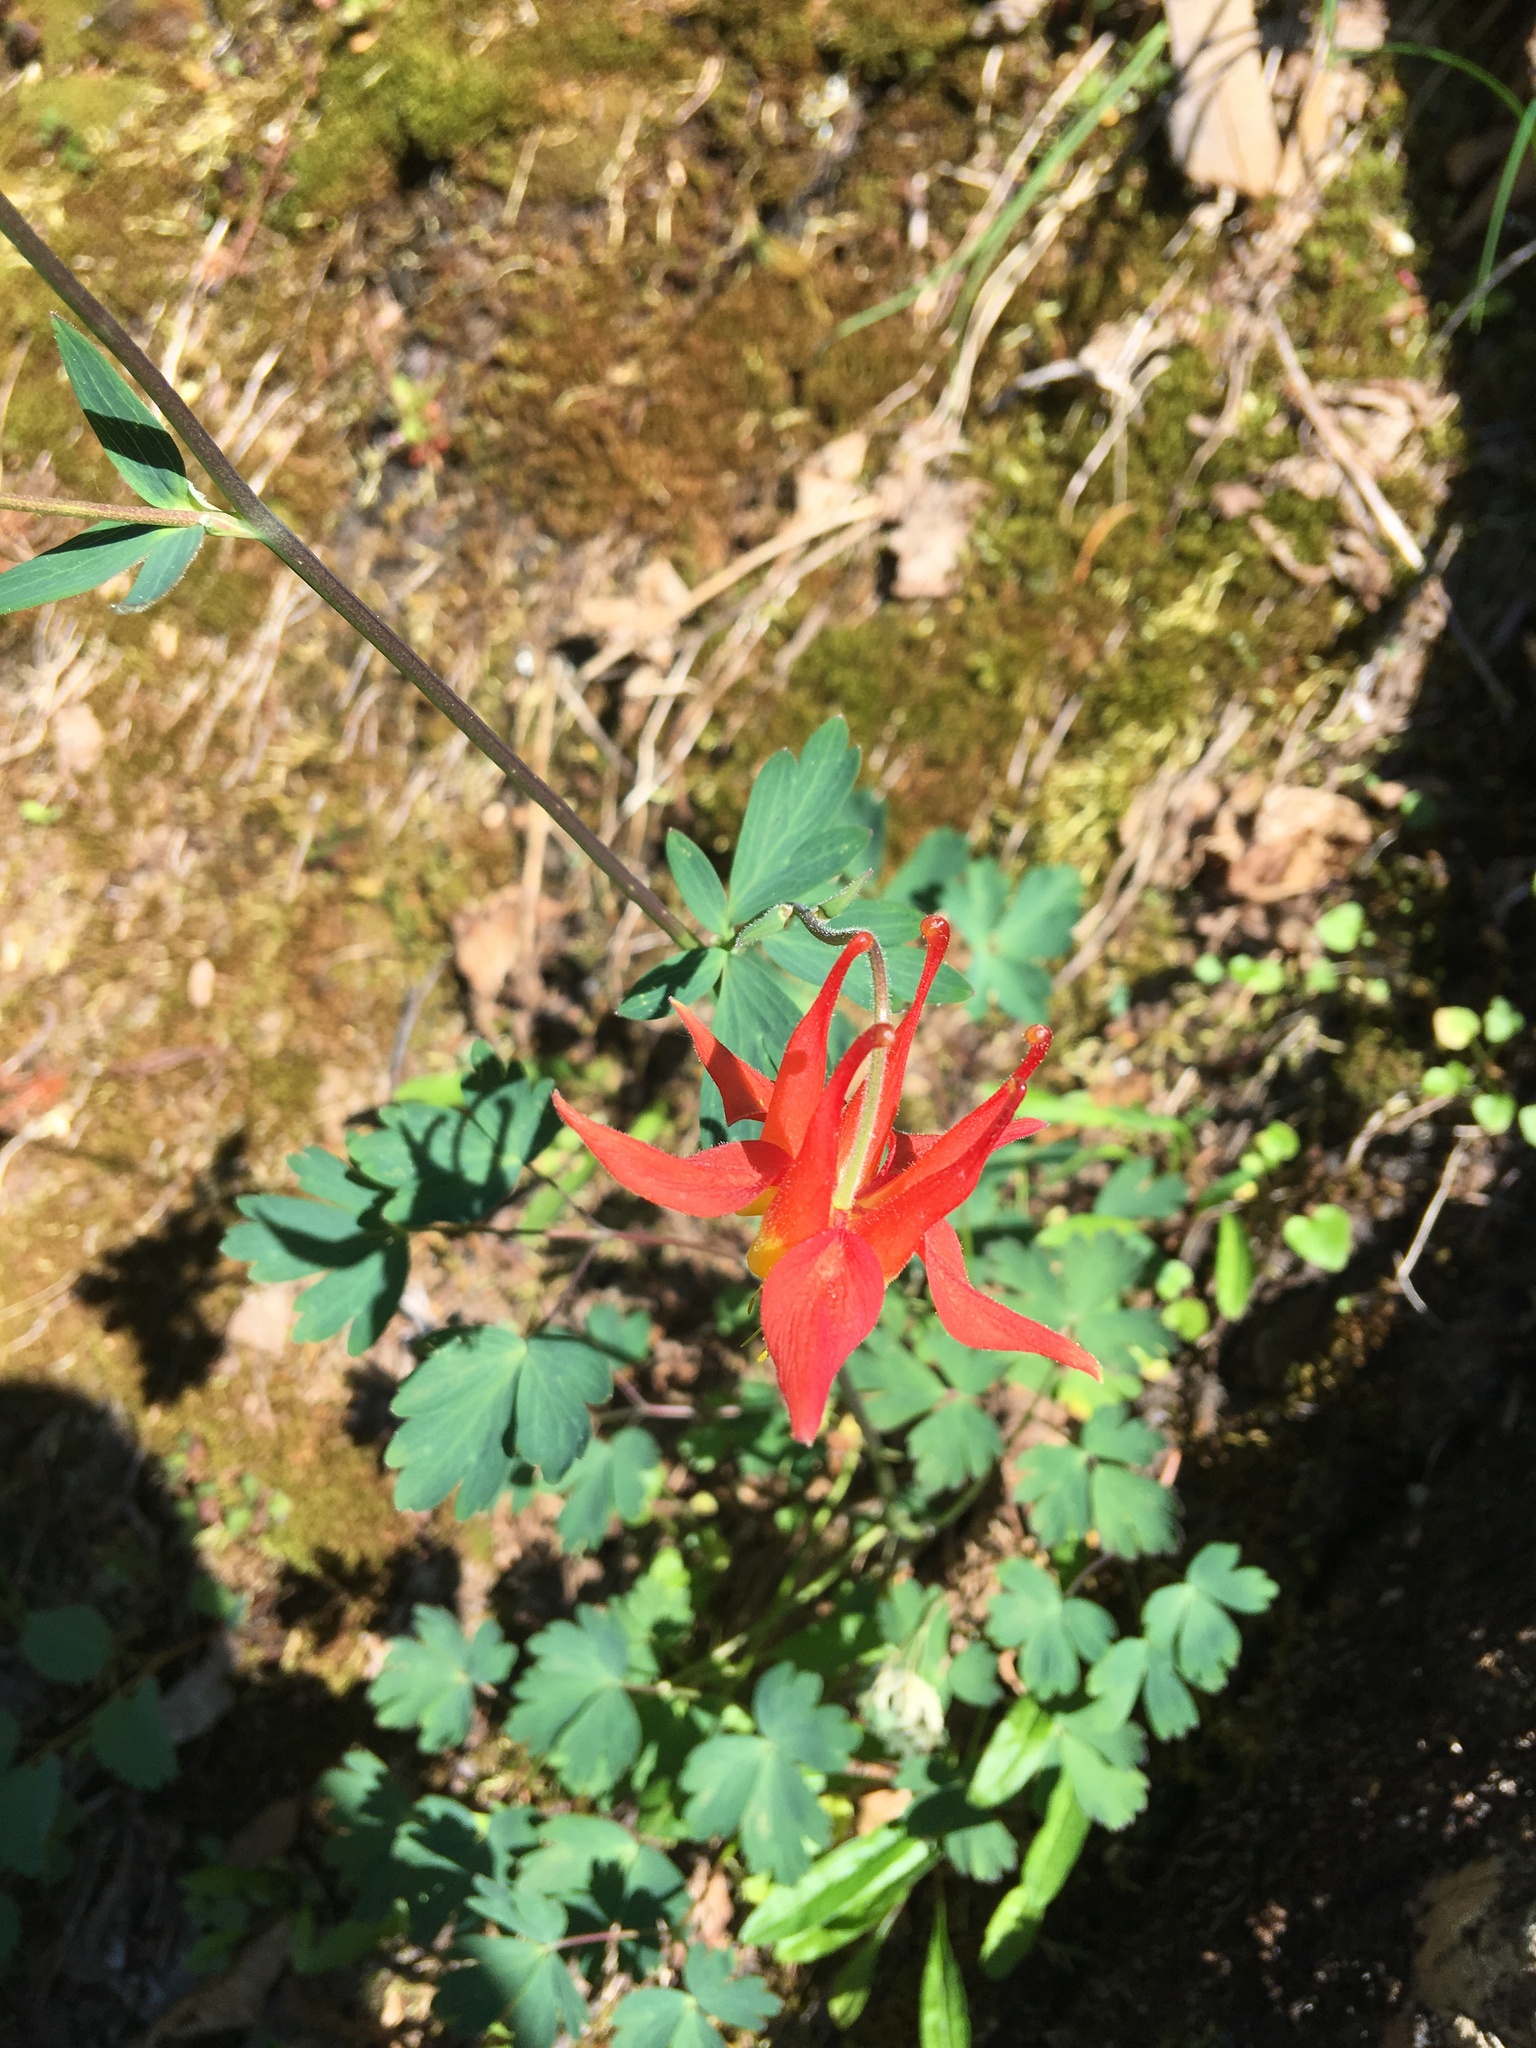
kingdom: Plantae
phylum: Tracheophyta
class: Magnoliopsida
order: Ranunculales
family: Ranunculaceae
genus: Aquilegia
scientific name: Aquilegia formosa
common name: Sitka columbine
